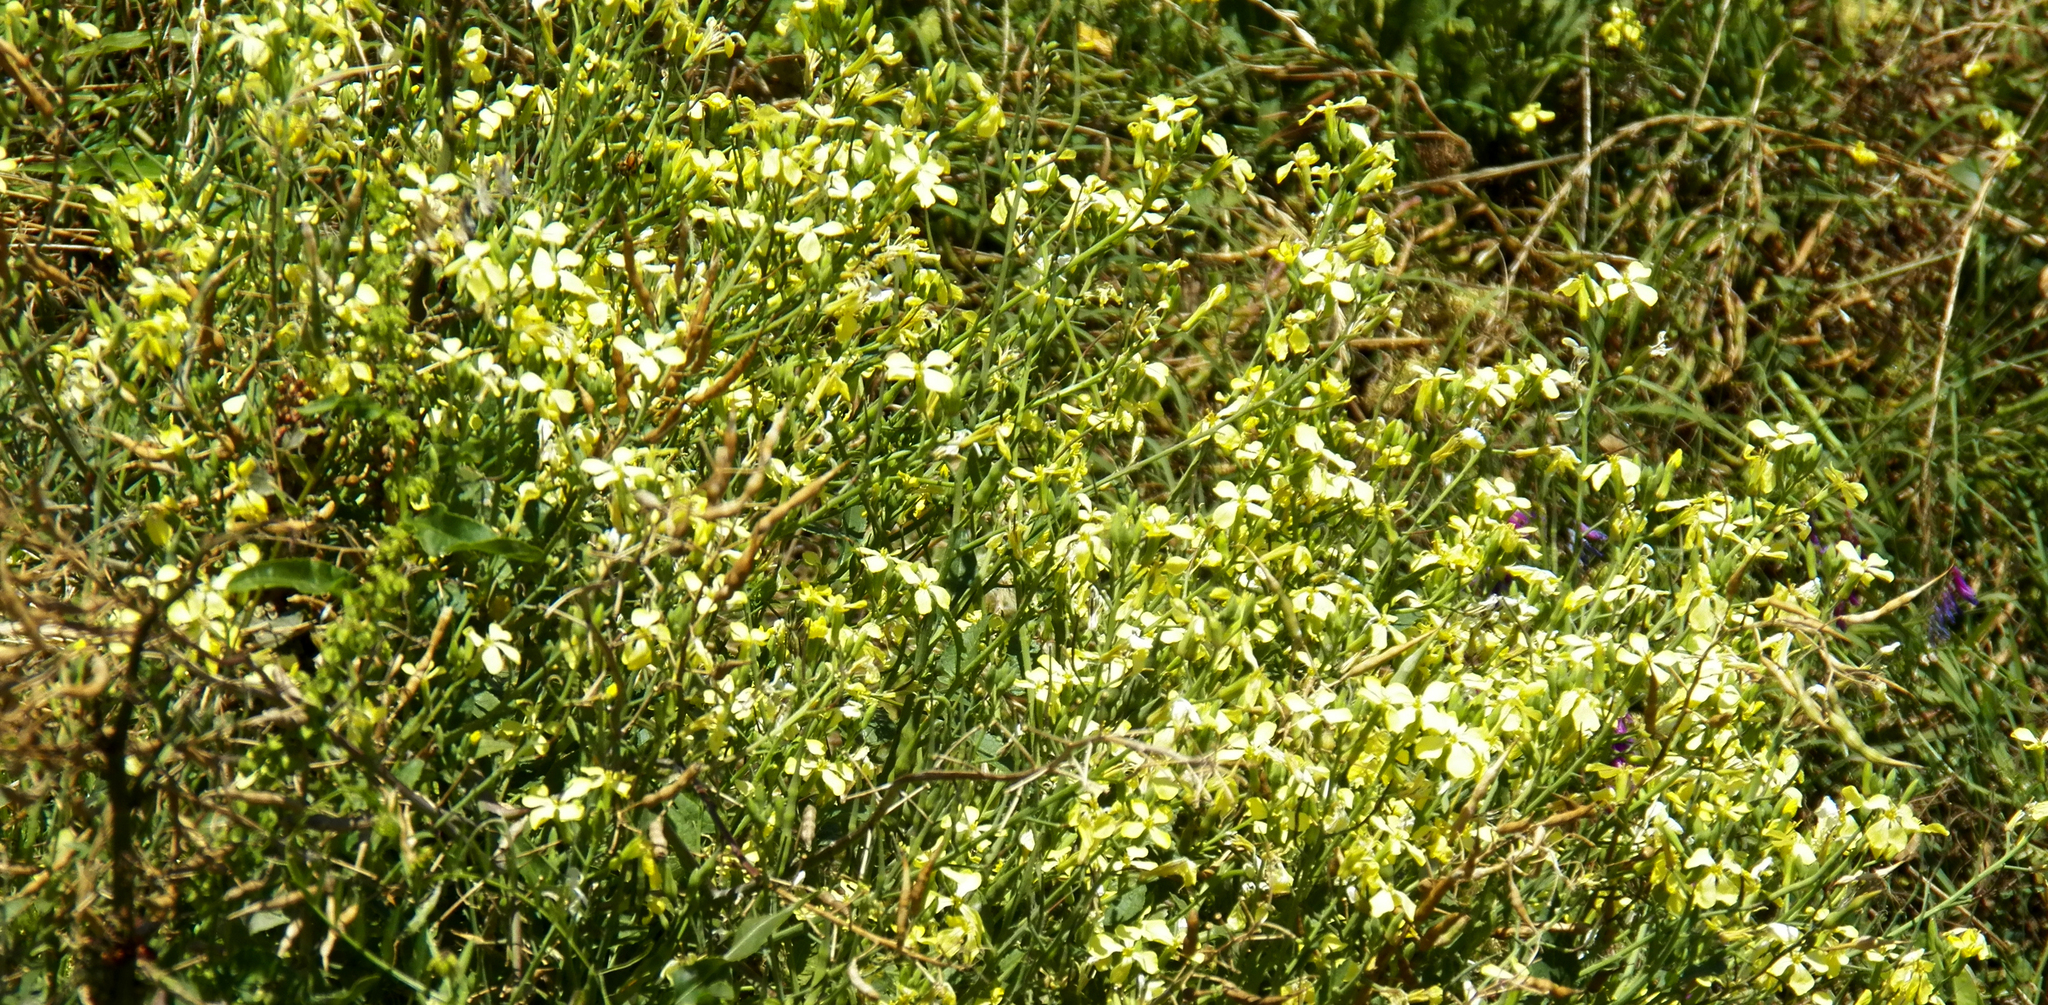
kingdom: Plantae
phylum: Tracheophyta
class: Magnoliopsida
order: Brassicales
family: Brassicaceae
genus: Raphanus
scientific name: Raphanus raphanistrum
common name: Wild radish
